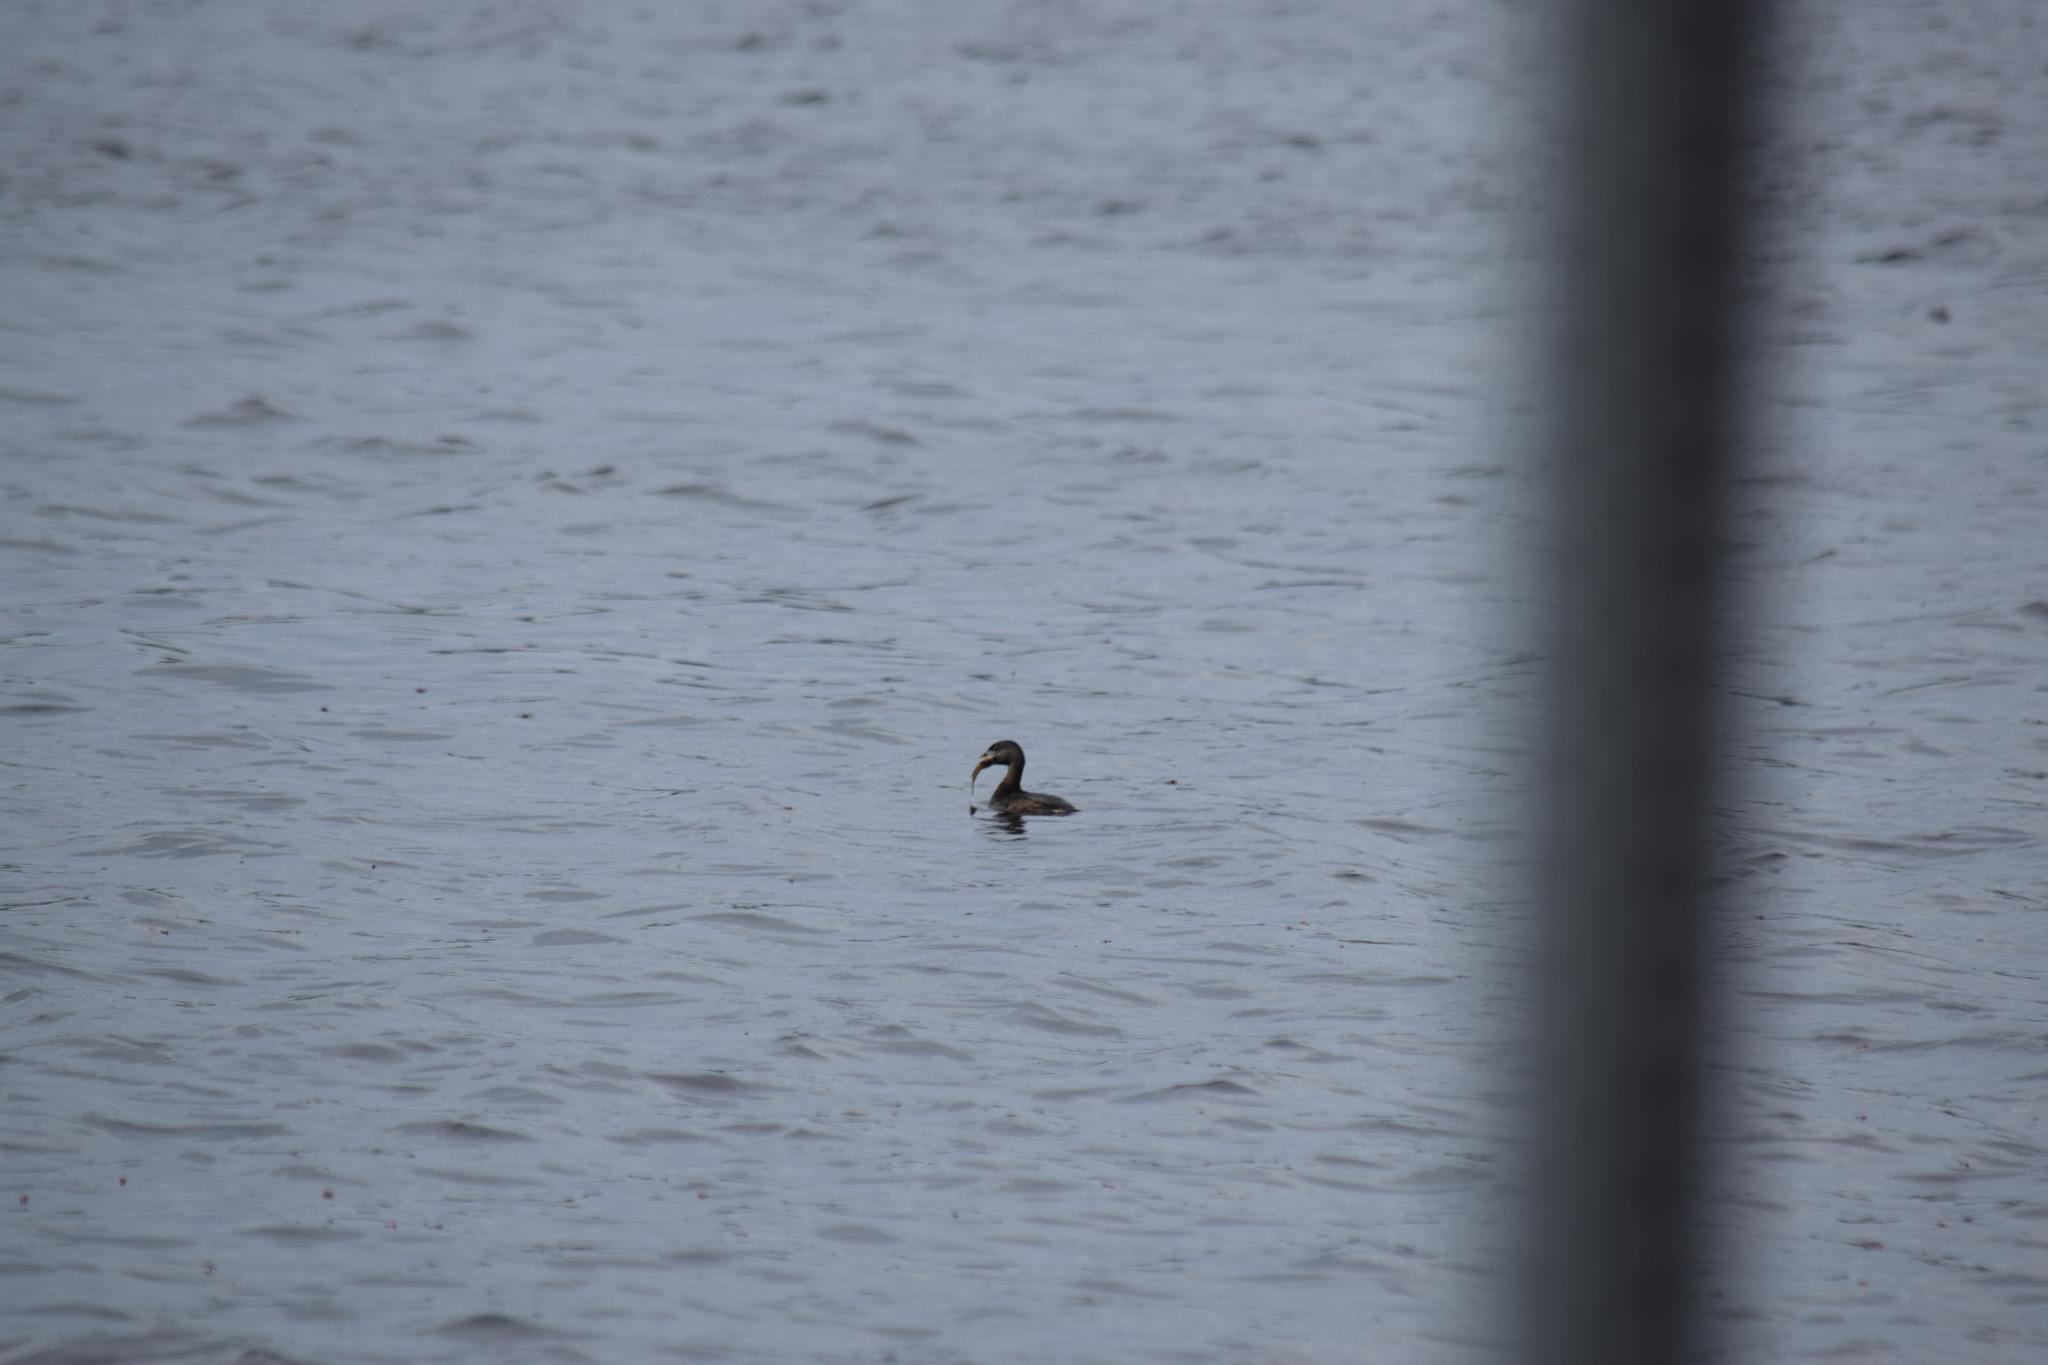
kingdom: Animalia
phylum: Chordata
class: Aves
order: Podicipediformes
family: Podicipedidae
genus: Podilymbus
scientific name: Podilymbus podiceps
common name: Pied-billed grebe
